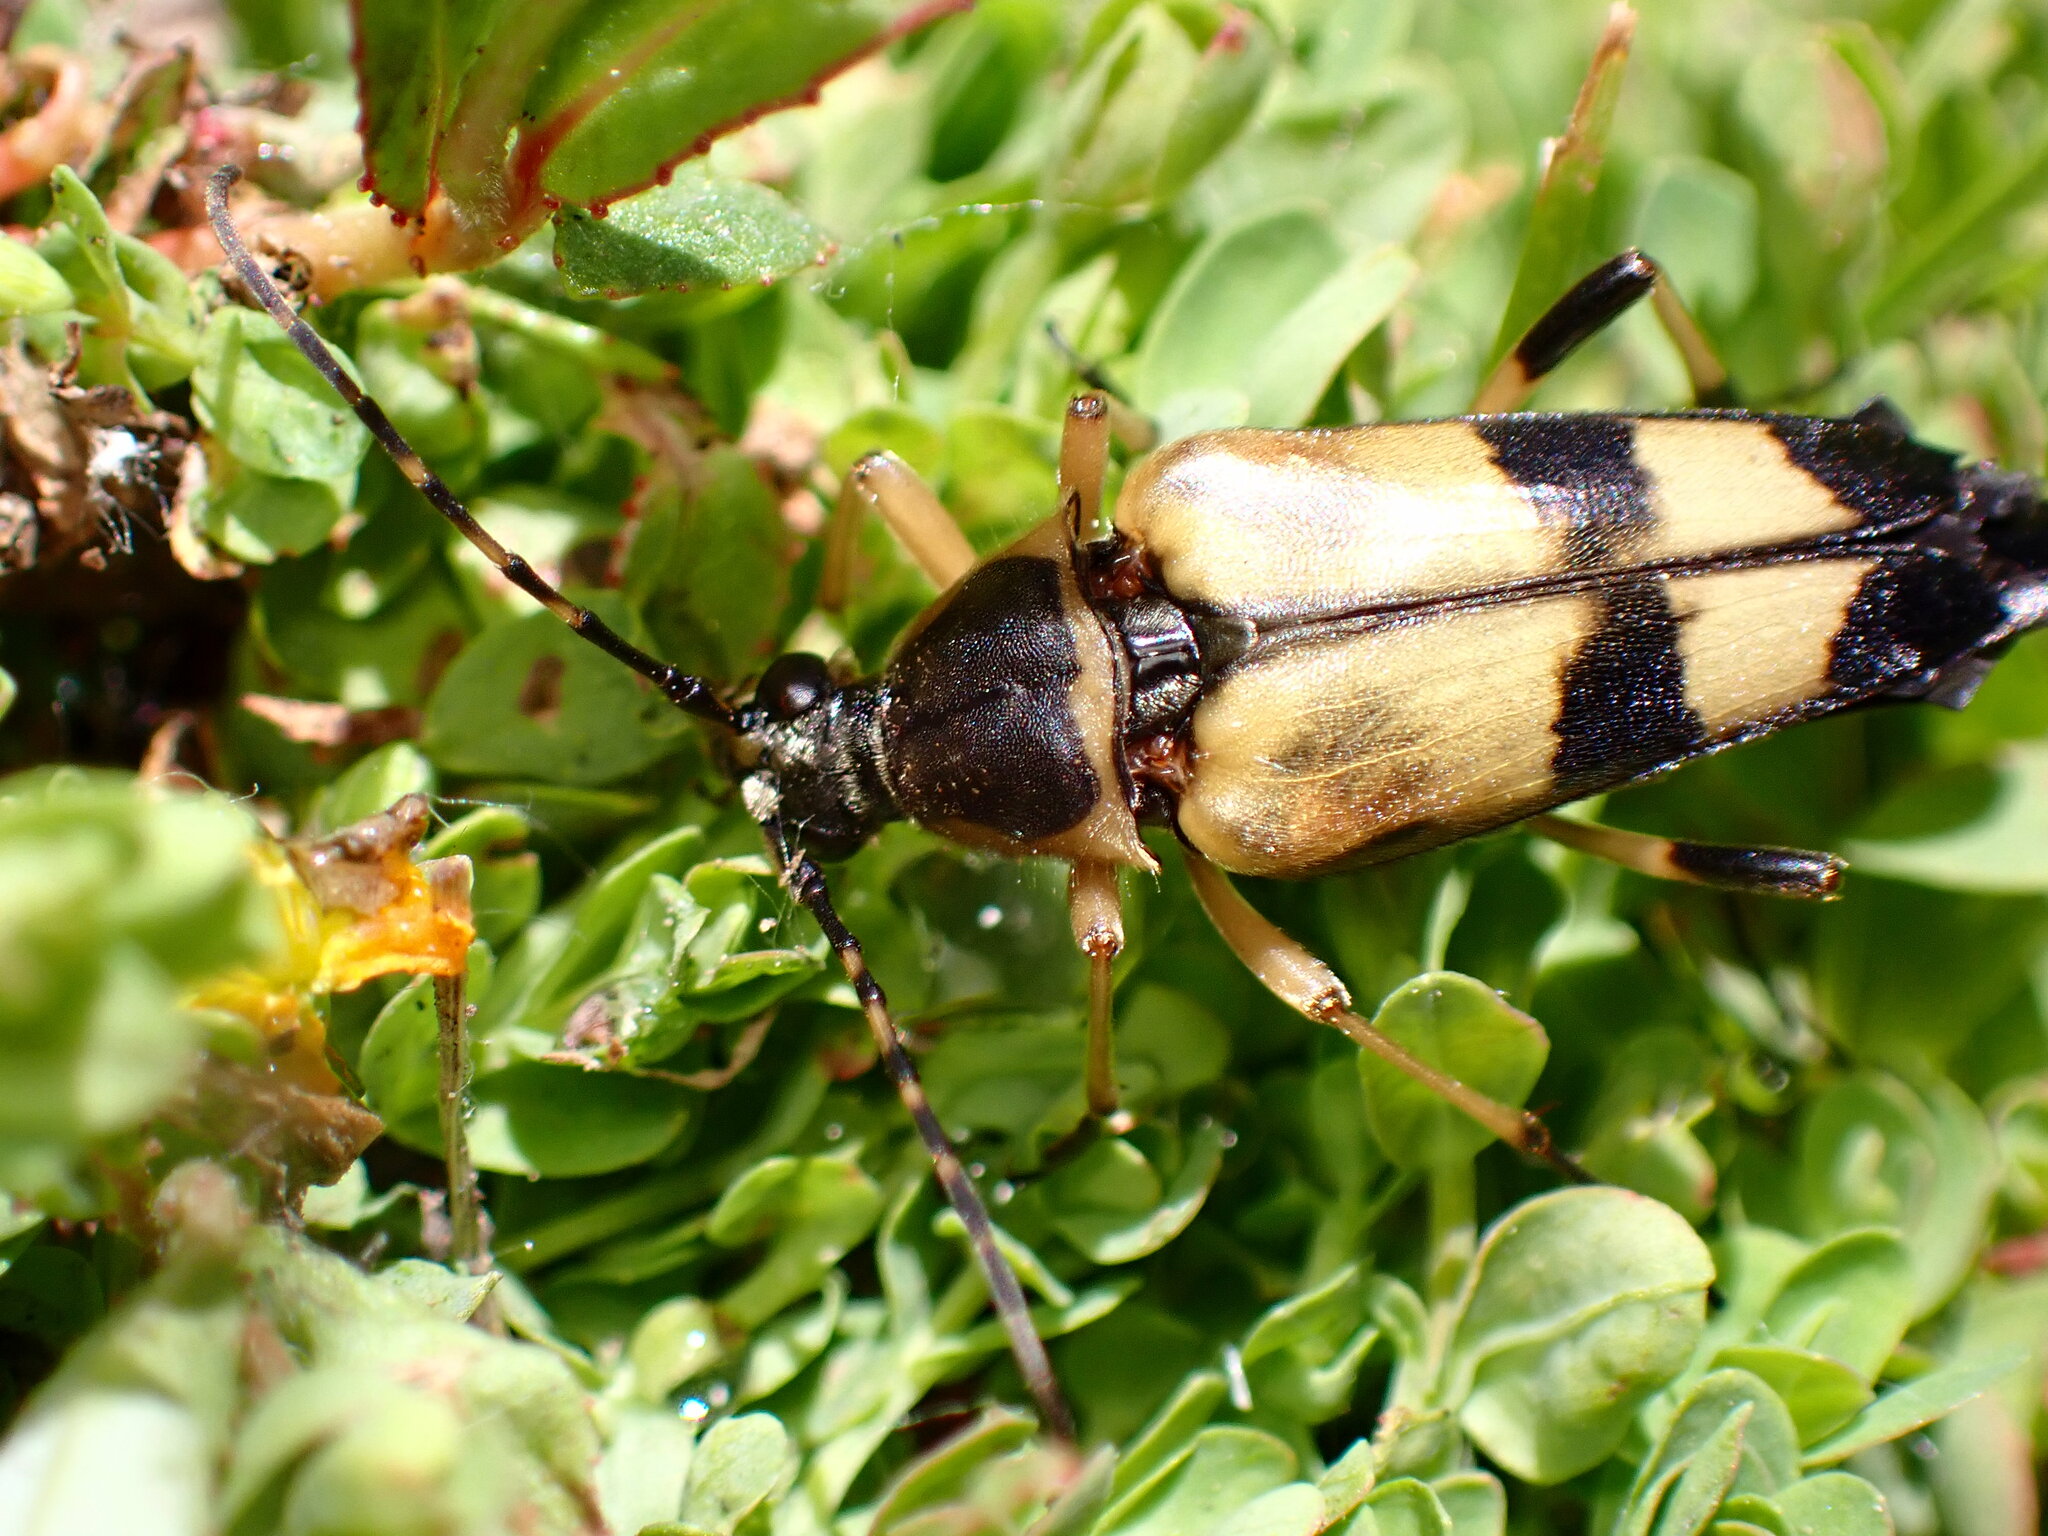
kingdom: Animalia
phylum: Arthropoda
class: Insecta
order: Coleoptera
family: Cerambycidae
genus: Etorofus
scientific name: Etorofus obliteratus
